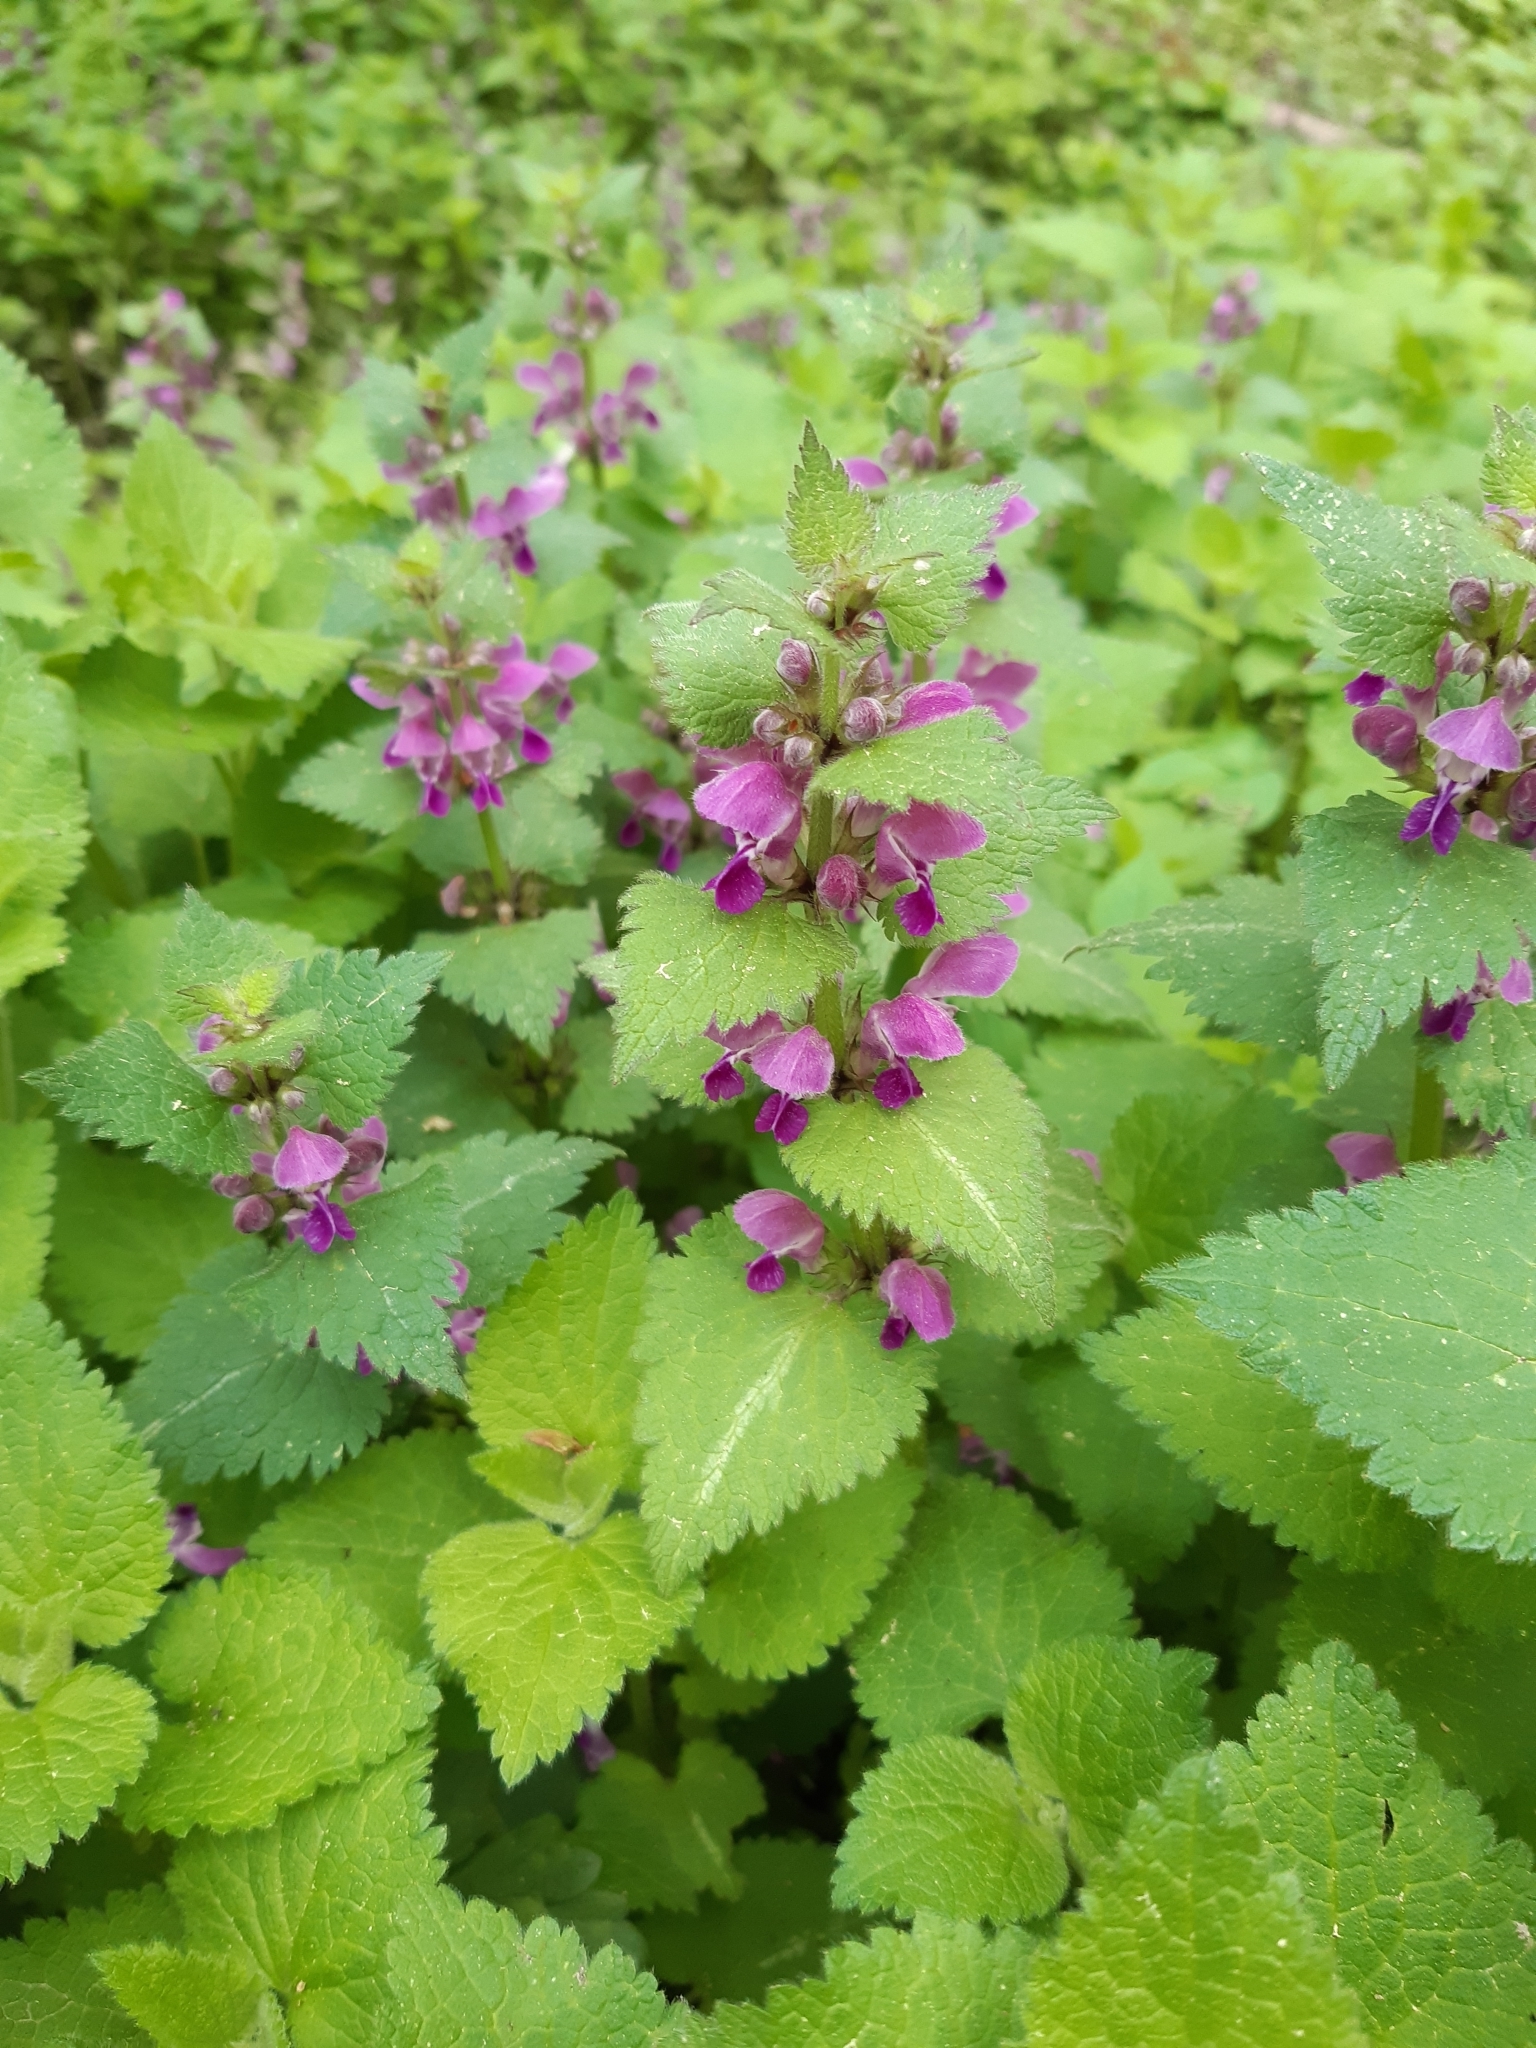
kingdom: Plantae
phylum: Tracheophyta
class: Magnoliopsida
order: Lamiales
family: Lamiaceae
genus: Lamium
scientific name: Lamium maculatum
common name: Spotted dead-nettle
